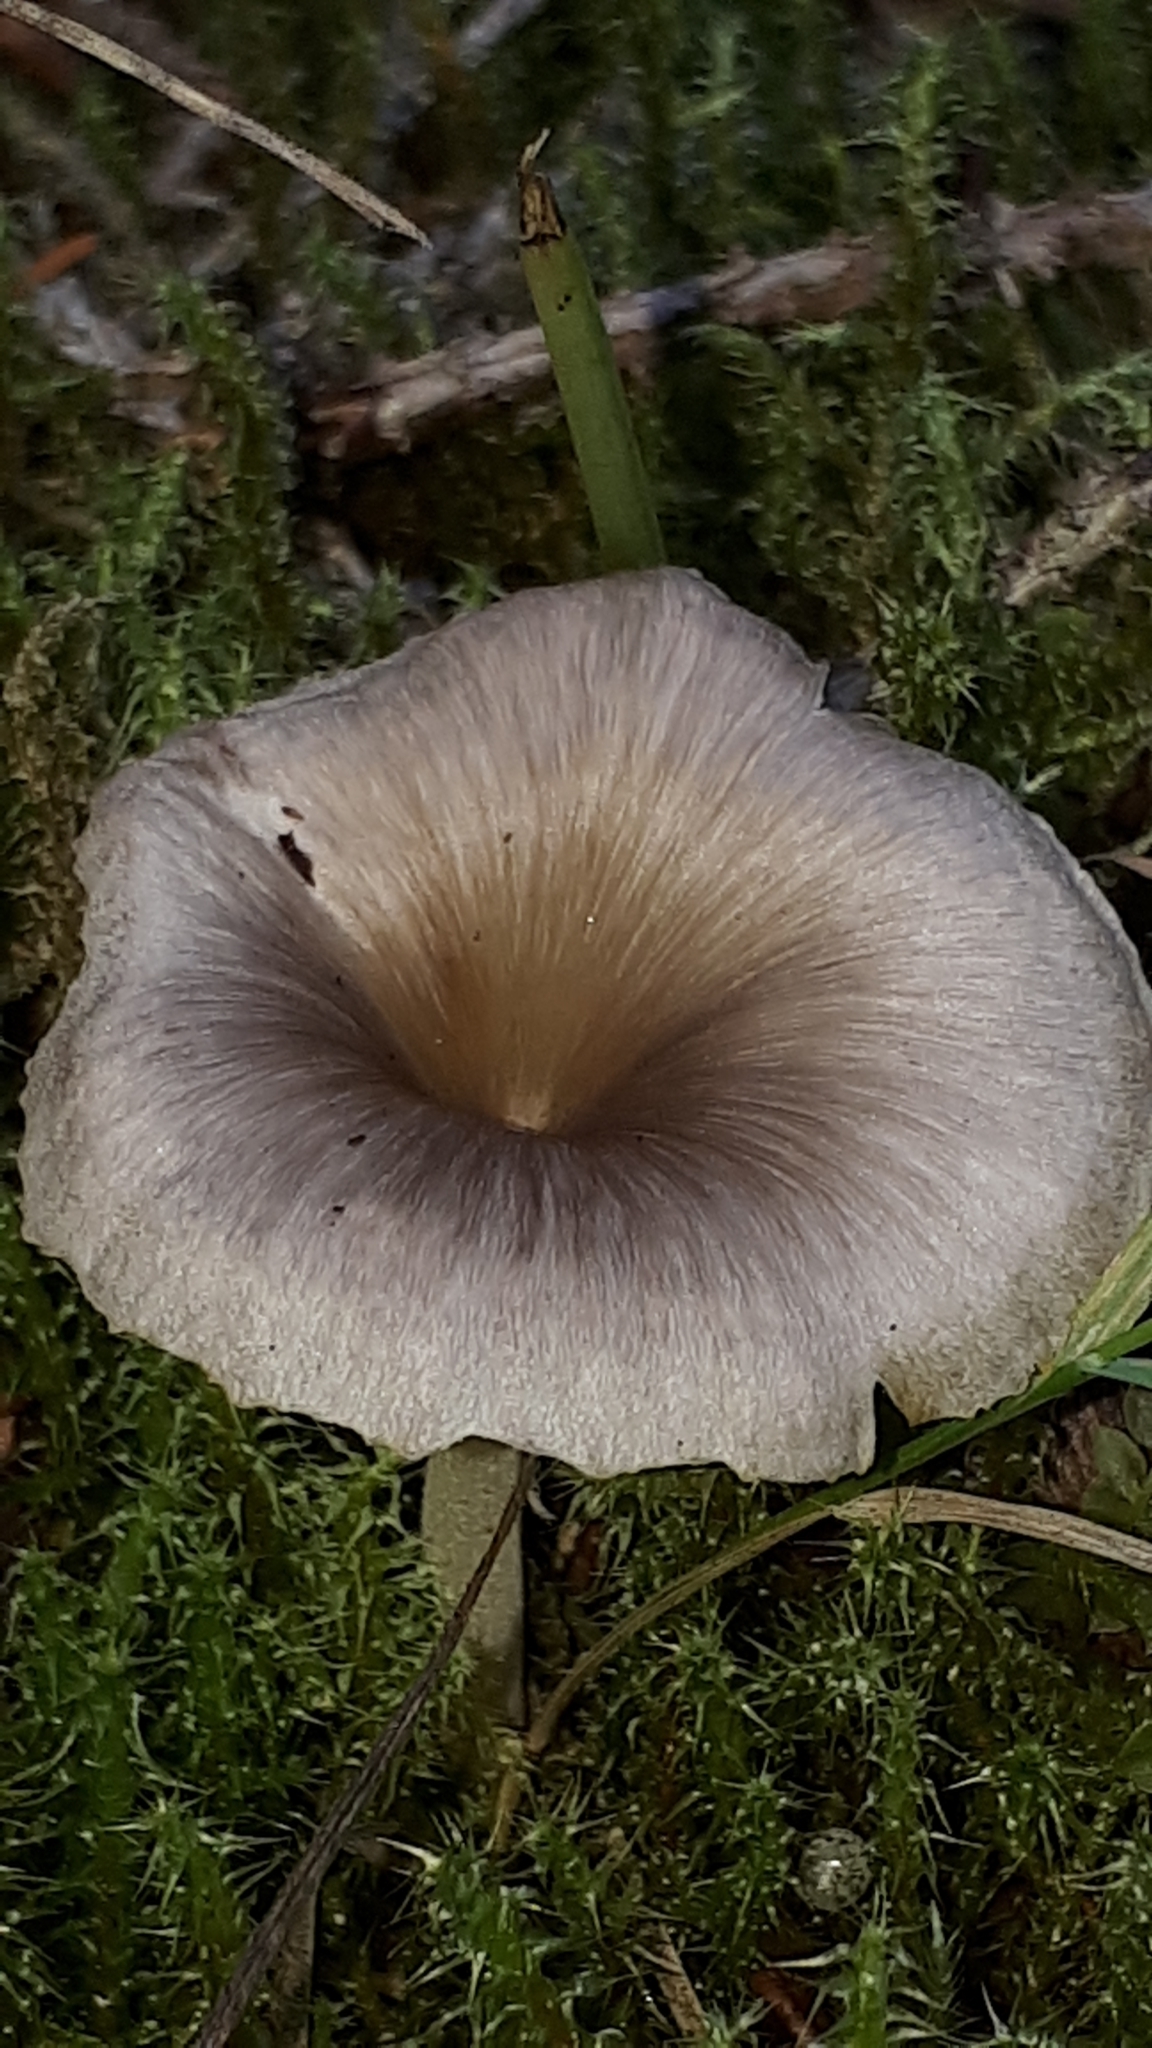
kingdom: Fungi
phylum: Basidiomycota
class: Agaricomycetes
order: Agaricales
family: Pseudoclitocybaceae
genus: Pseudoclitocybe
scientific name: Pseudoclitocybe cyathiformis
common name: Goblet
